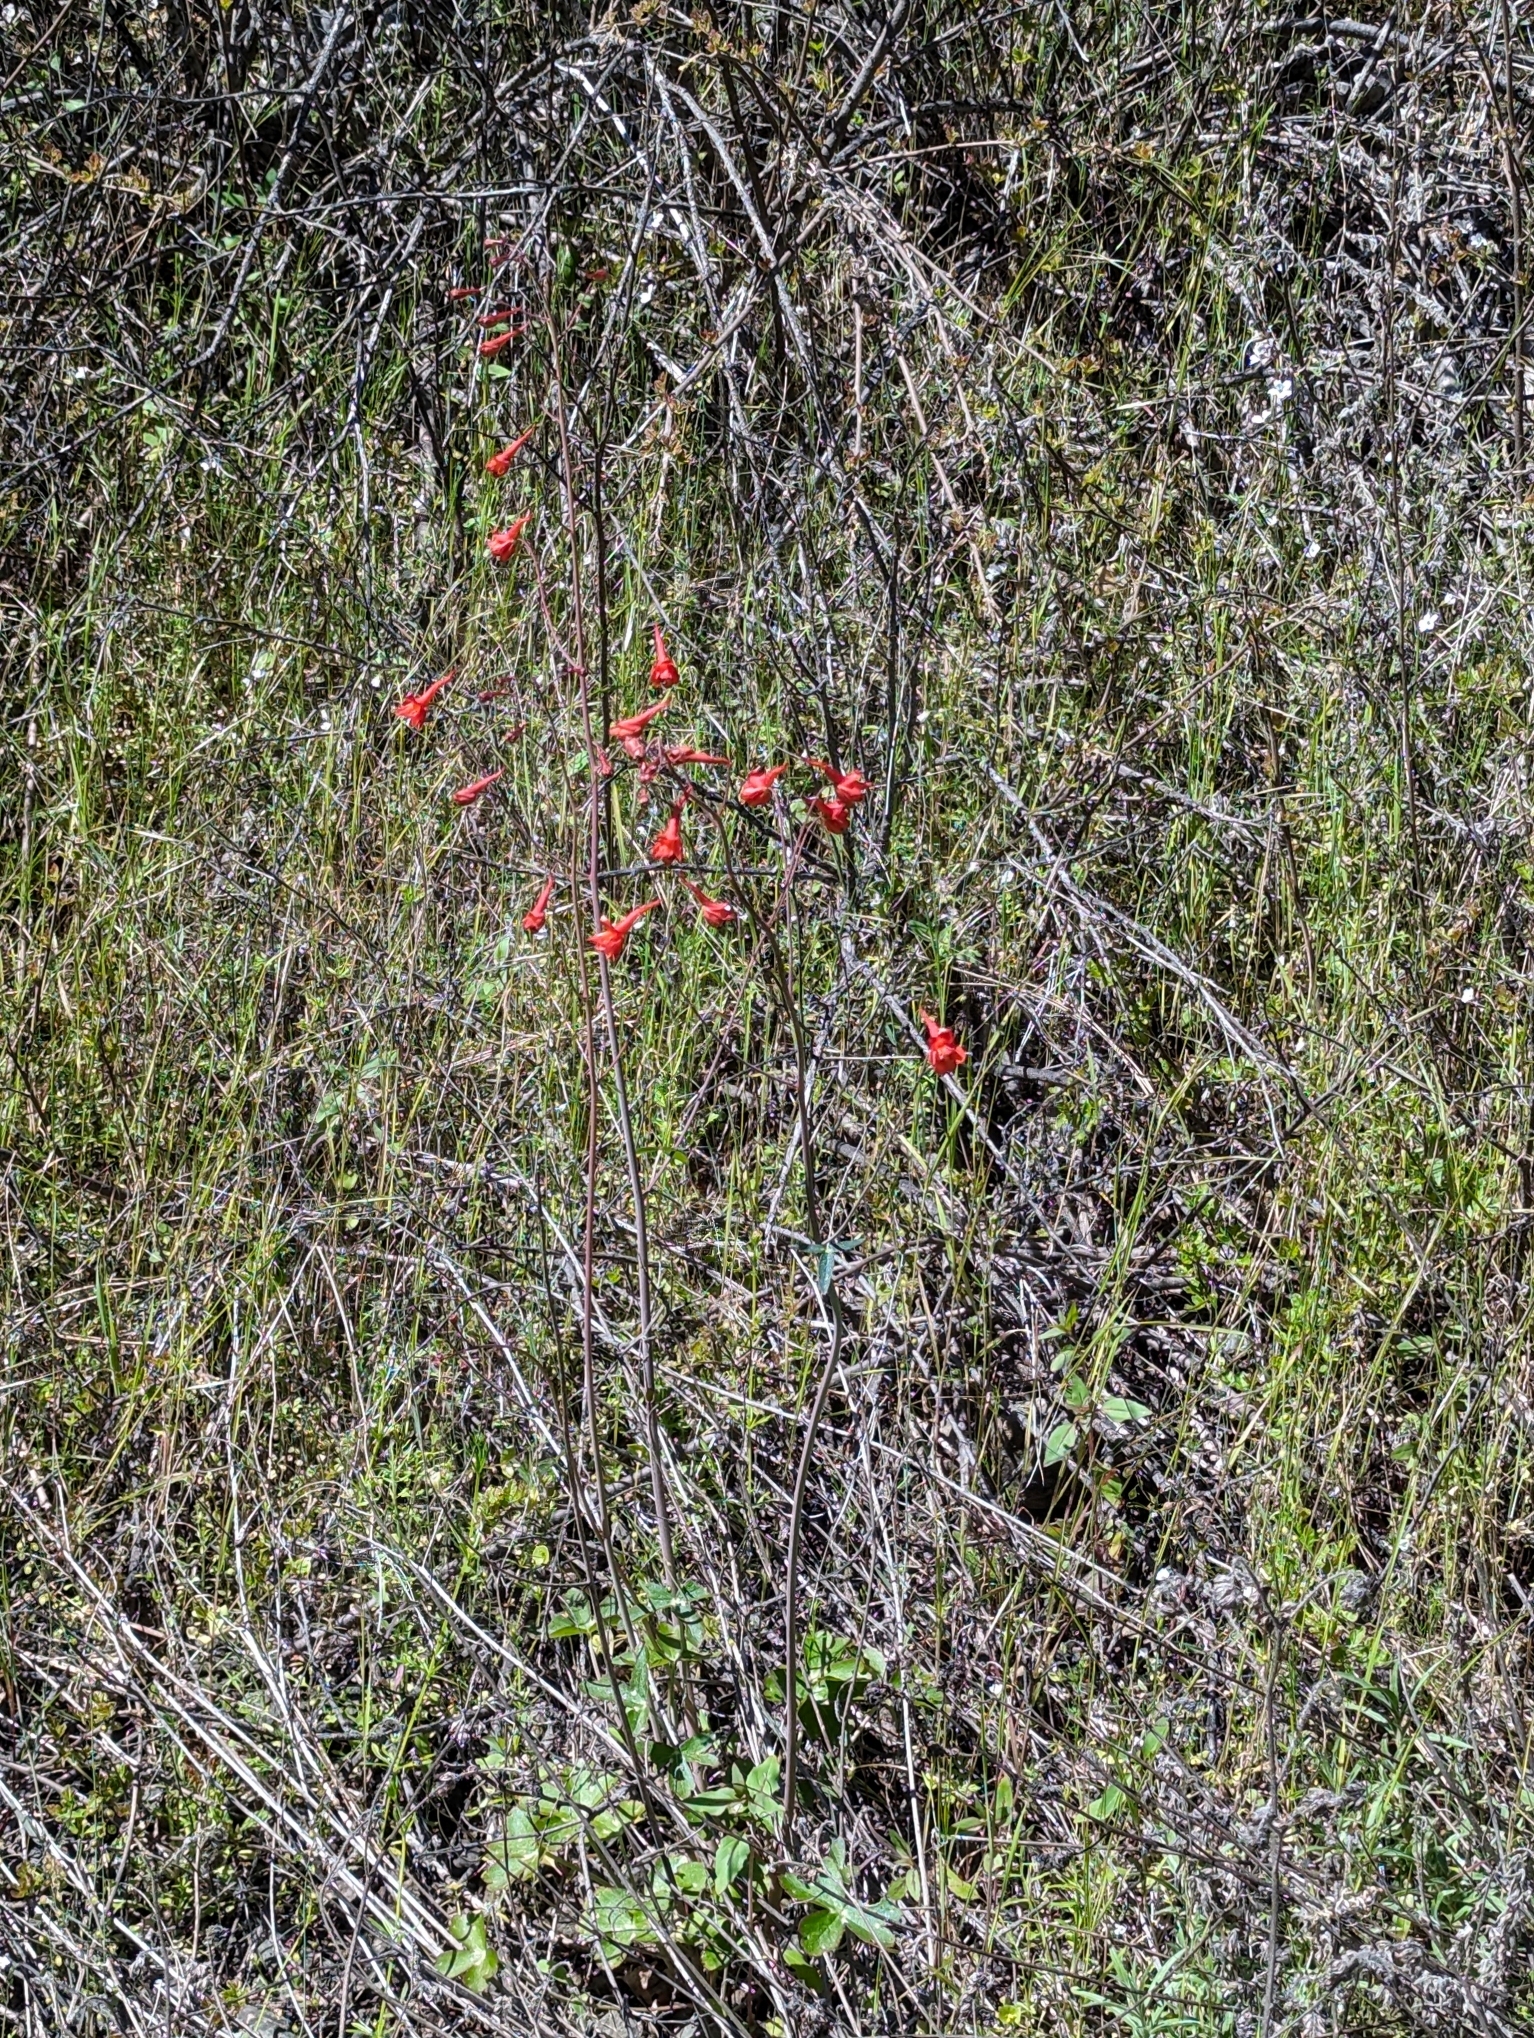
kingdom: Plantae
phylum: Tracheophyta
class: Magnoliopsida
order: Ranunculales
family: Ranunculaceae
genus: Delphinium
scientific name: Delphinium nudicaule
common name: Red larkspur
